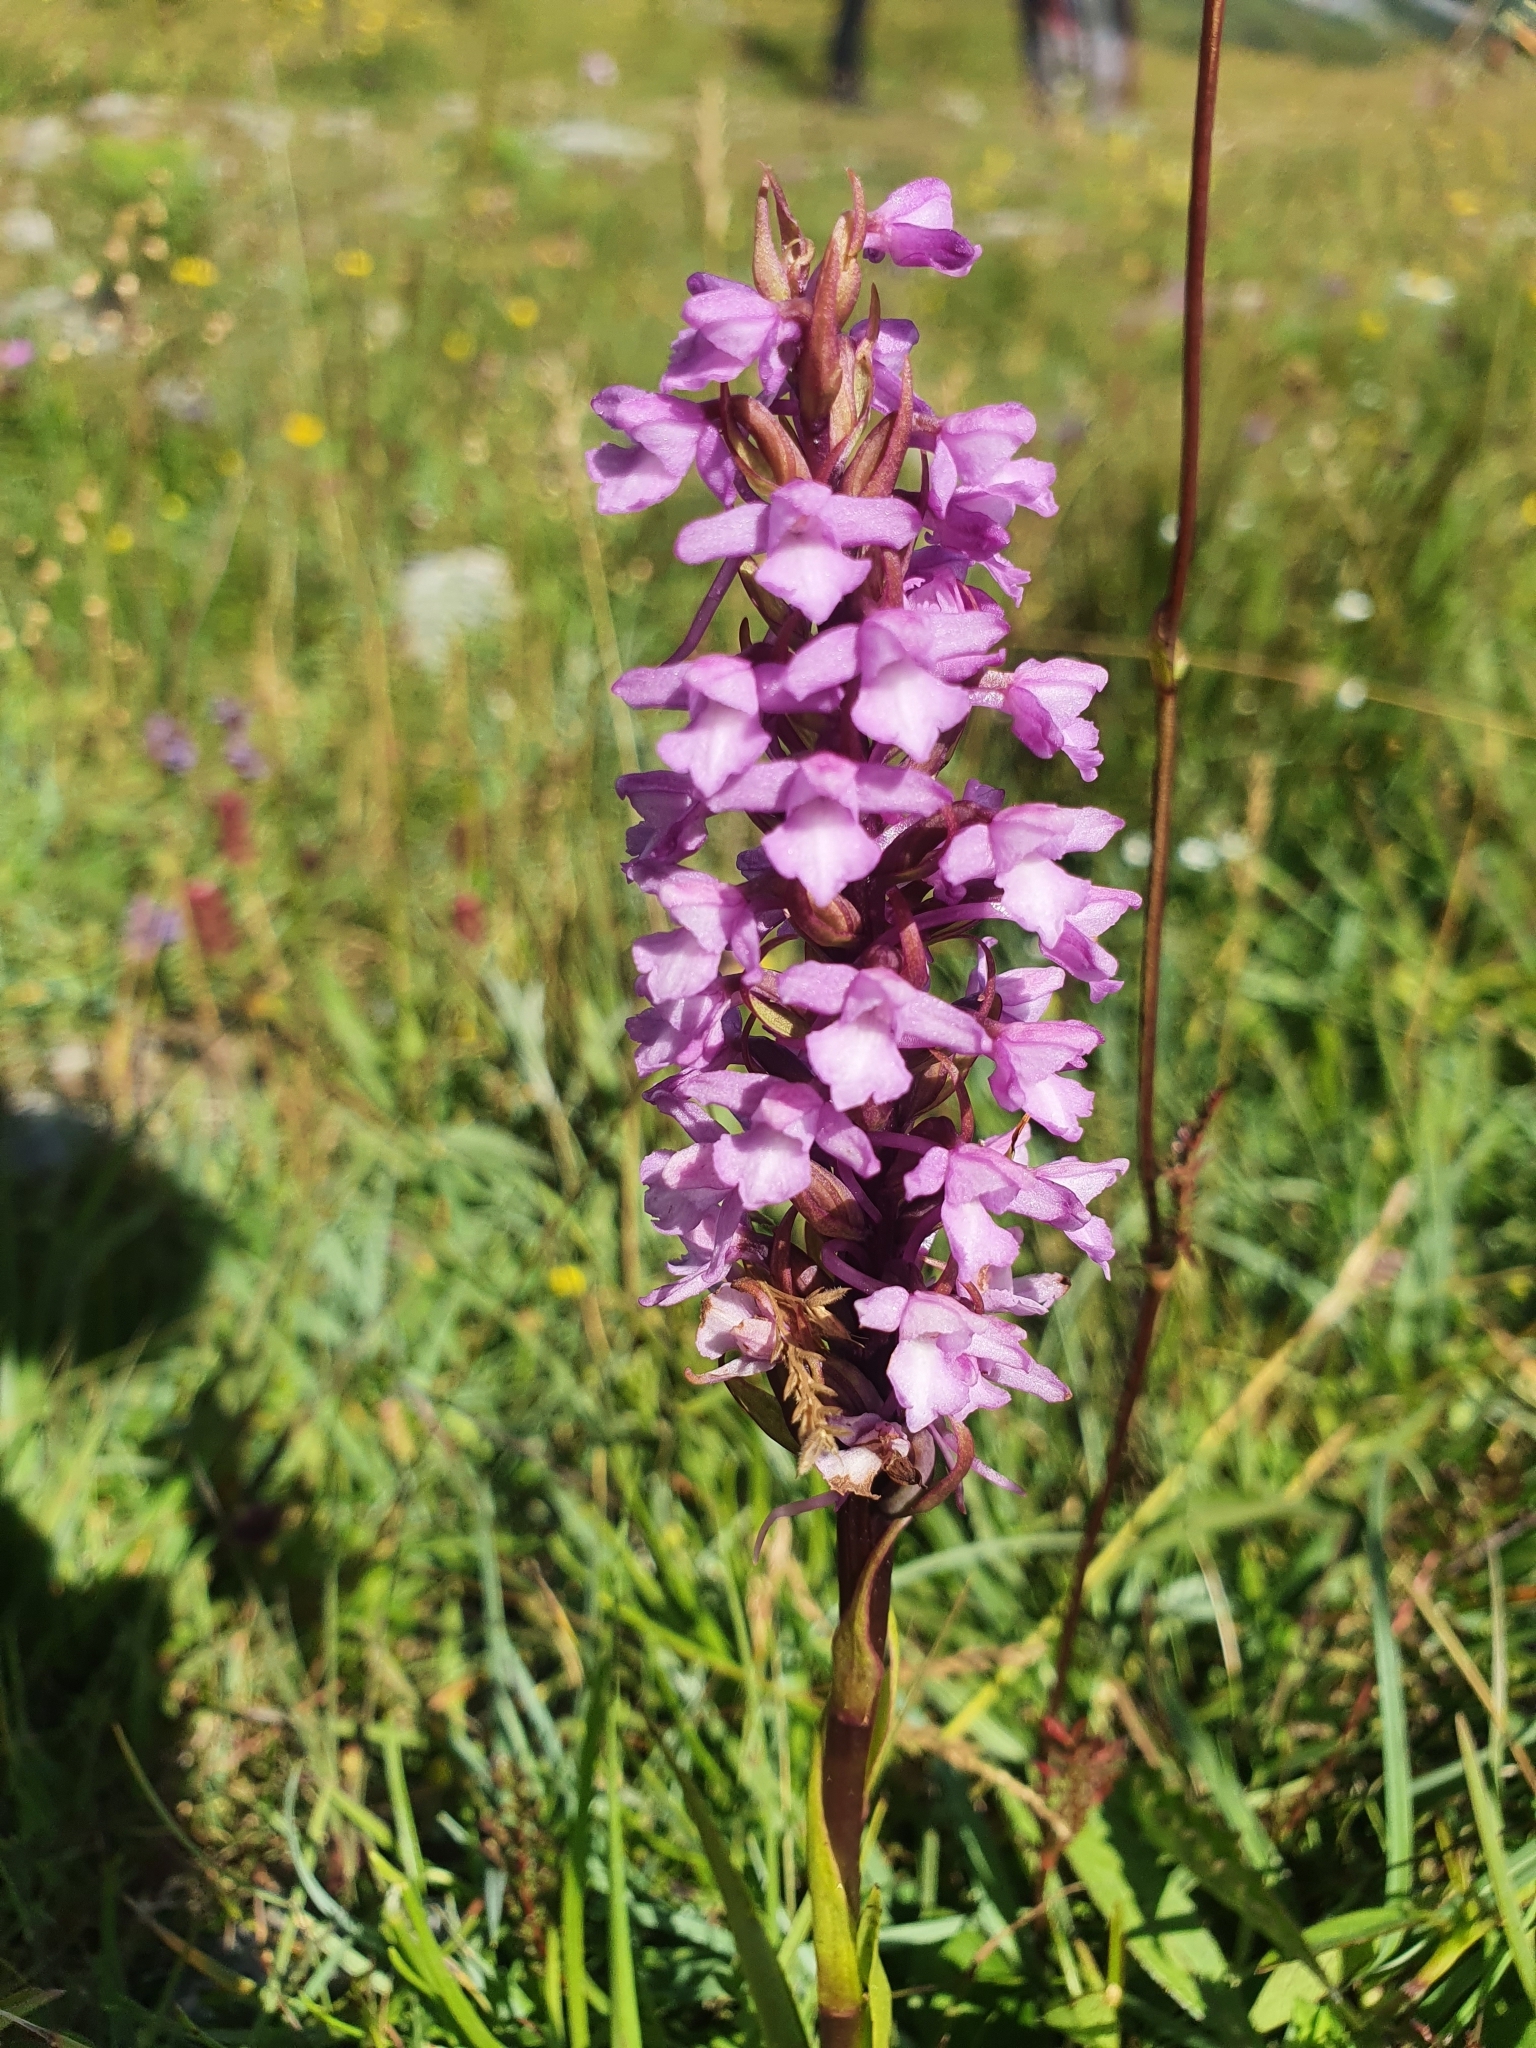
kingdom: Plantae
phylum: Tracheophyta
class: Liliopsida
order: Asparagales
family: Orchidaceae
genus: Gymnadenia
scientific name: Gymnadenia conopsea
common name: Fragrant orchid
